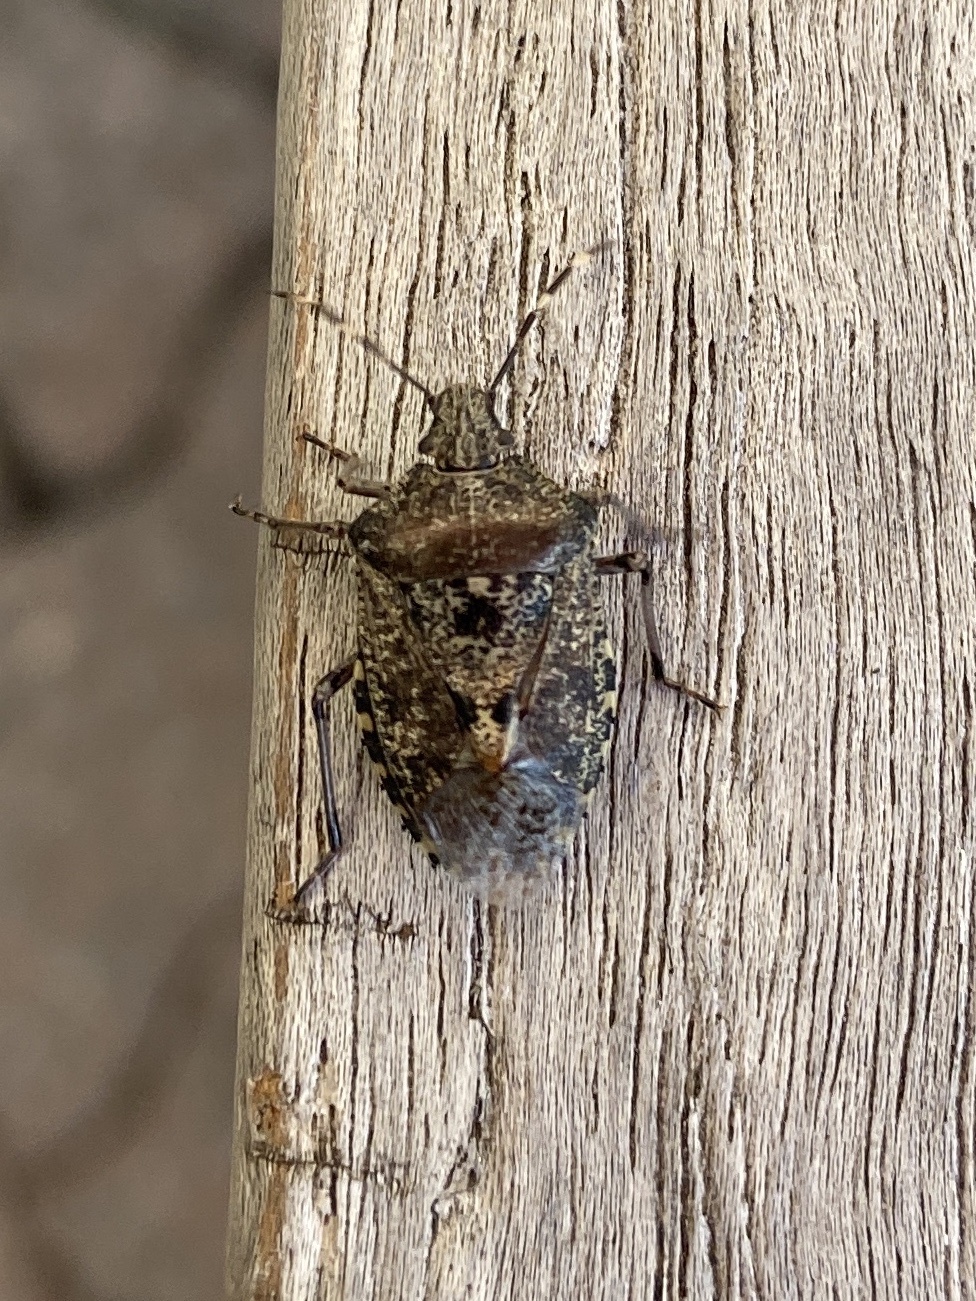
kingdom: Animalia
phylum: Arthropoda
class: Insecta
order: Hemiptera
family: Pentatomidae
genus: Rhaphigaster
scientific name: Rhaphigaster nebulosa
